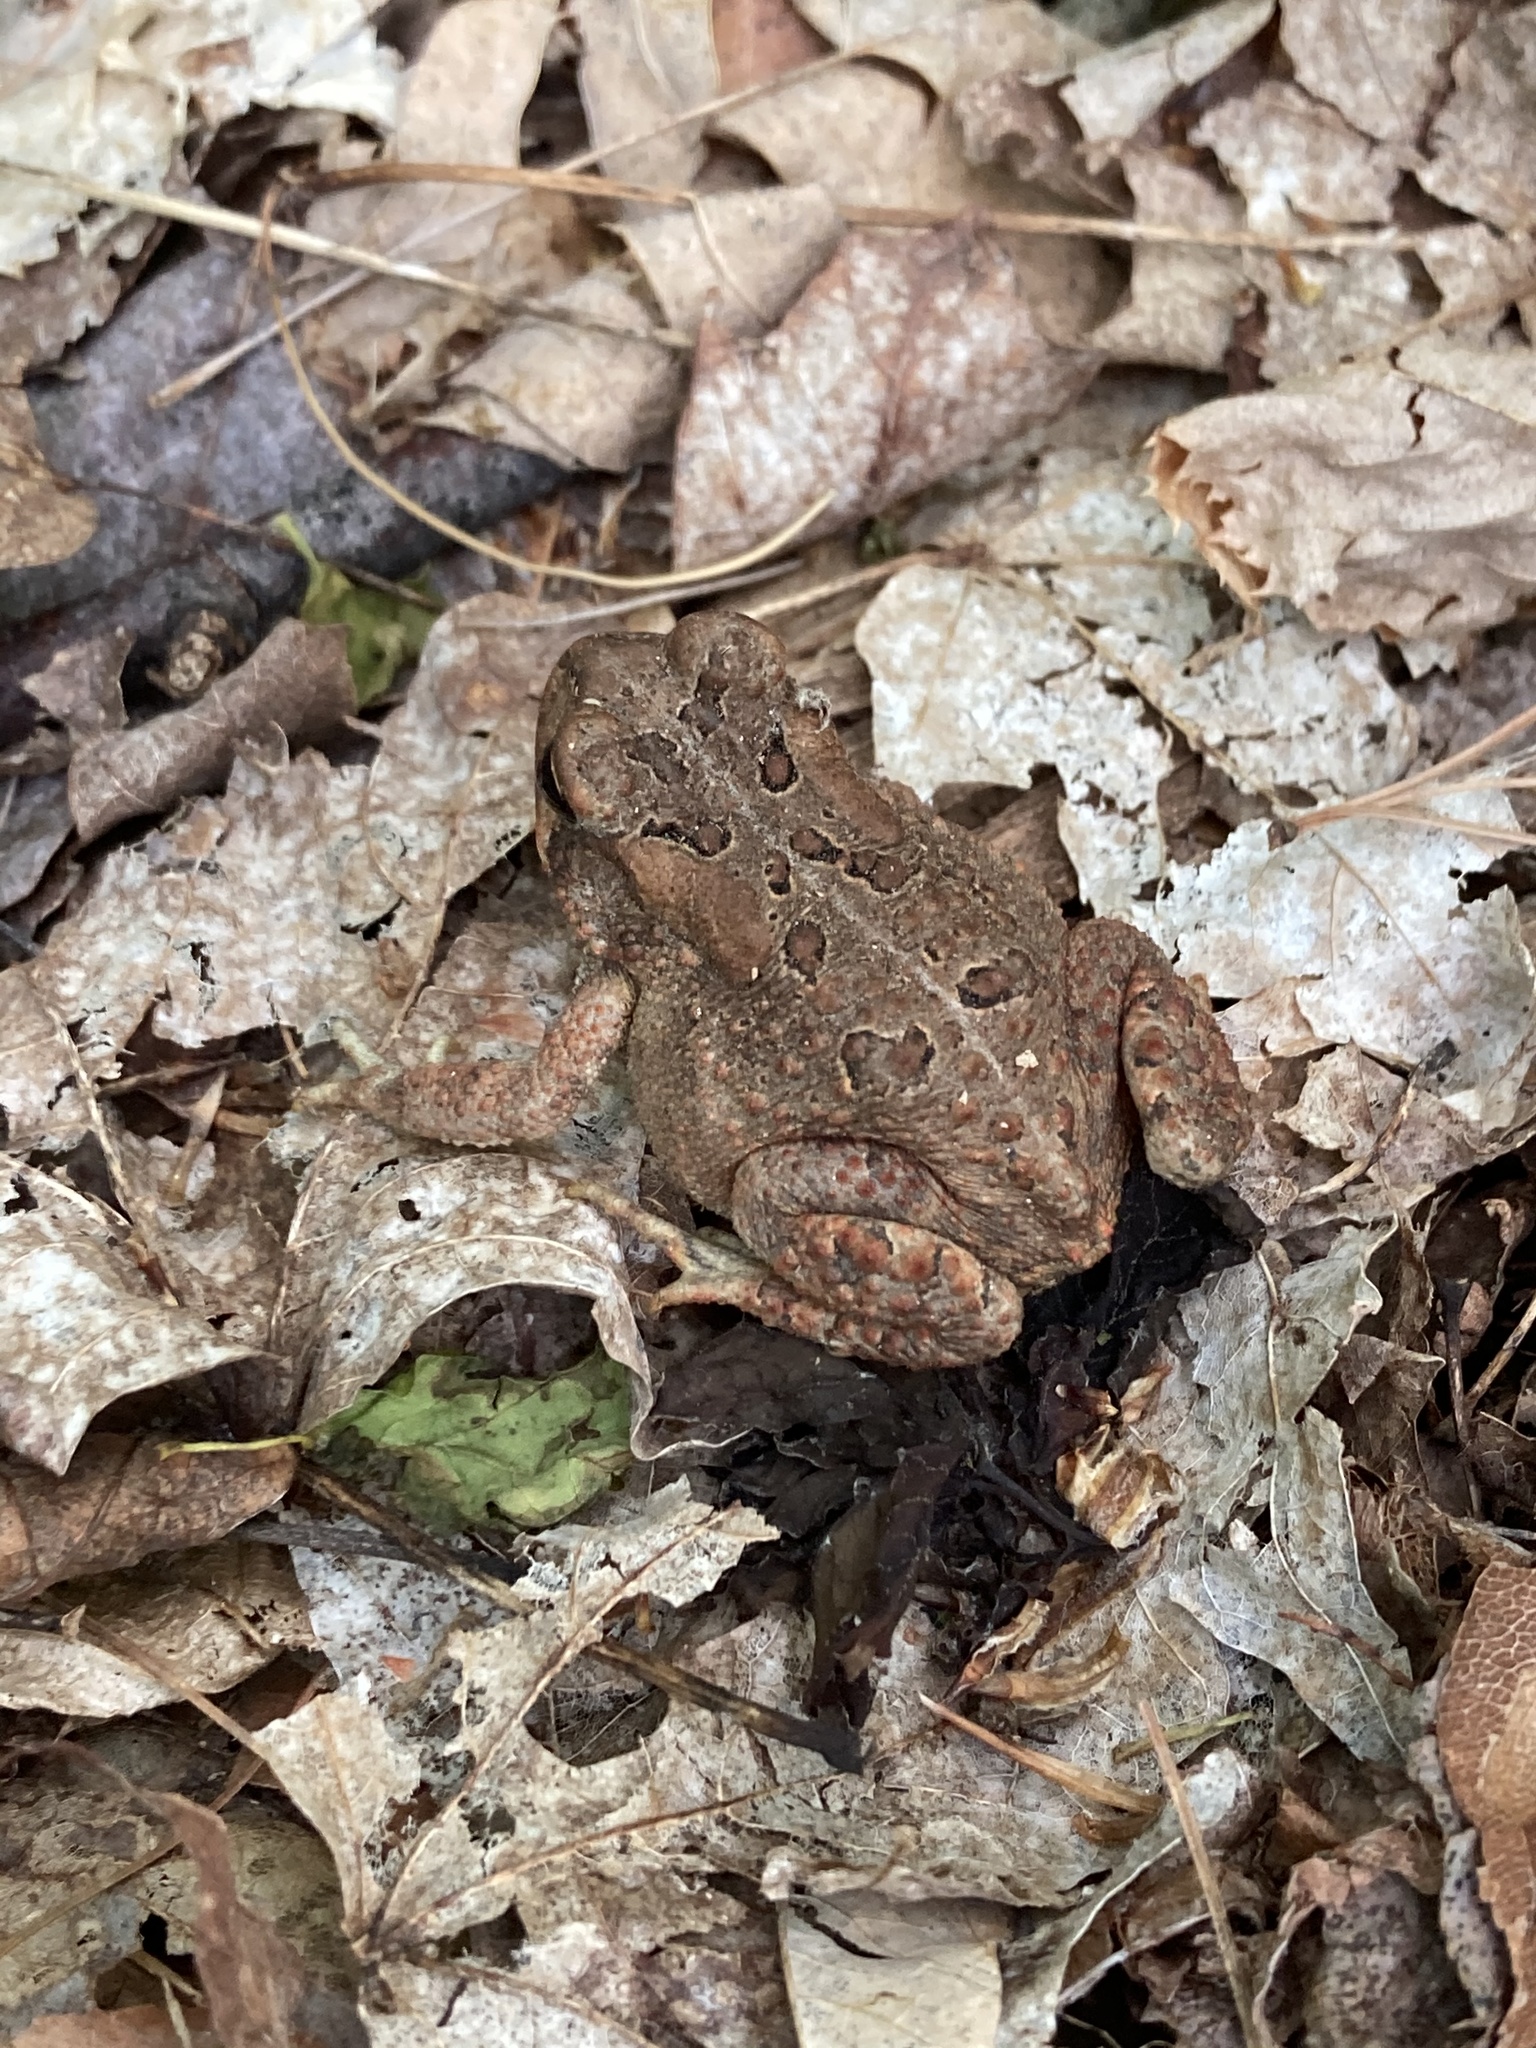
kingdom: Animalia
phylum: Chordata
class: Amphibia
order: Anura
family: Bufonidae
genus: Anaxyrus
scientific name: Anaxyrus americanus
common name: American toad
